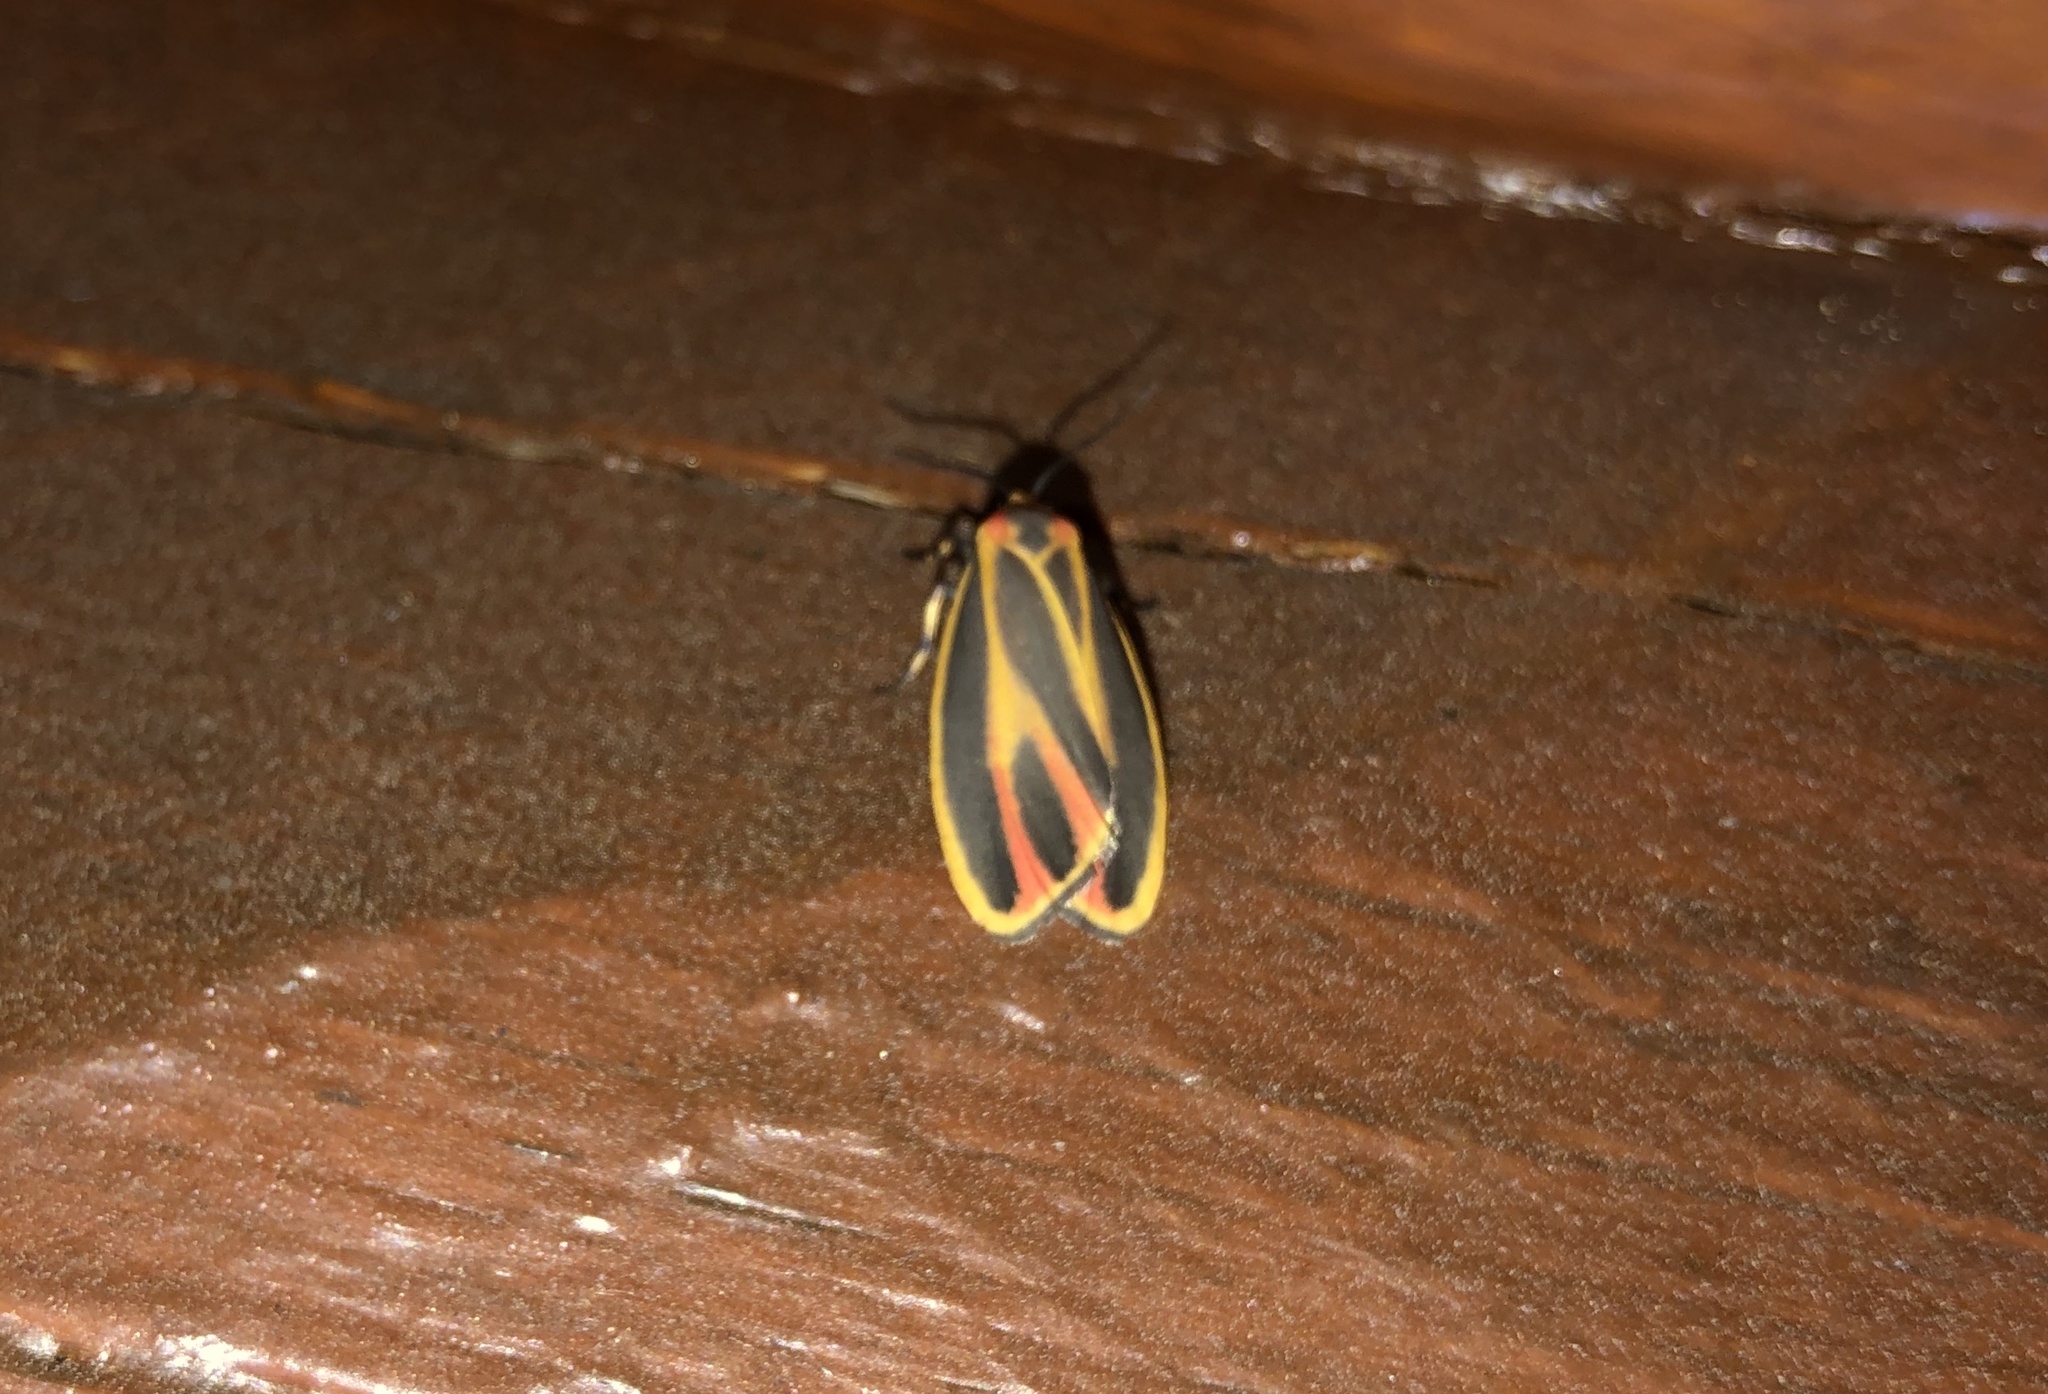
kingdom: Animalia
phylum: Arthropoda
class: Insecta
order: Lepidoptera
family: Erebidae
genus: Hypoprepia
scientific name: Hypoprepia fucosa
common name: Painted lichen moth
